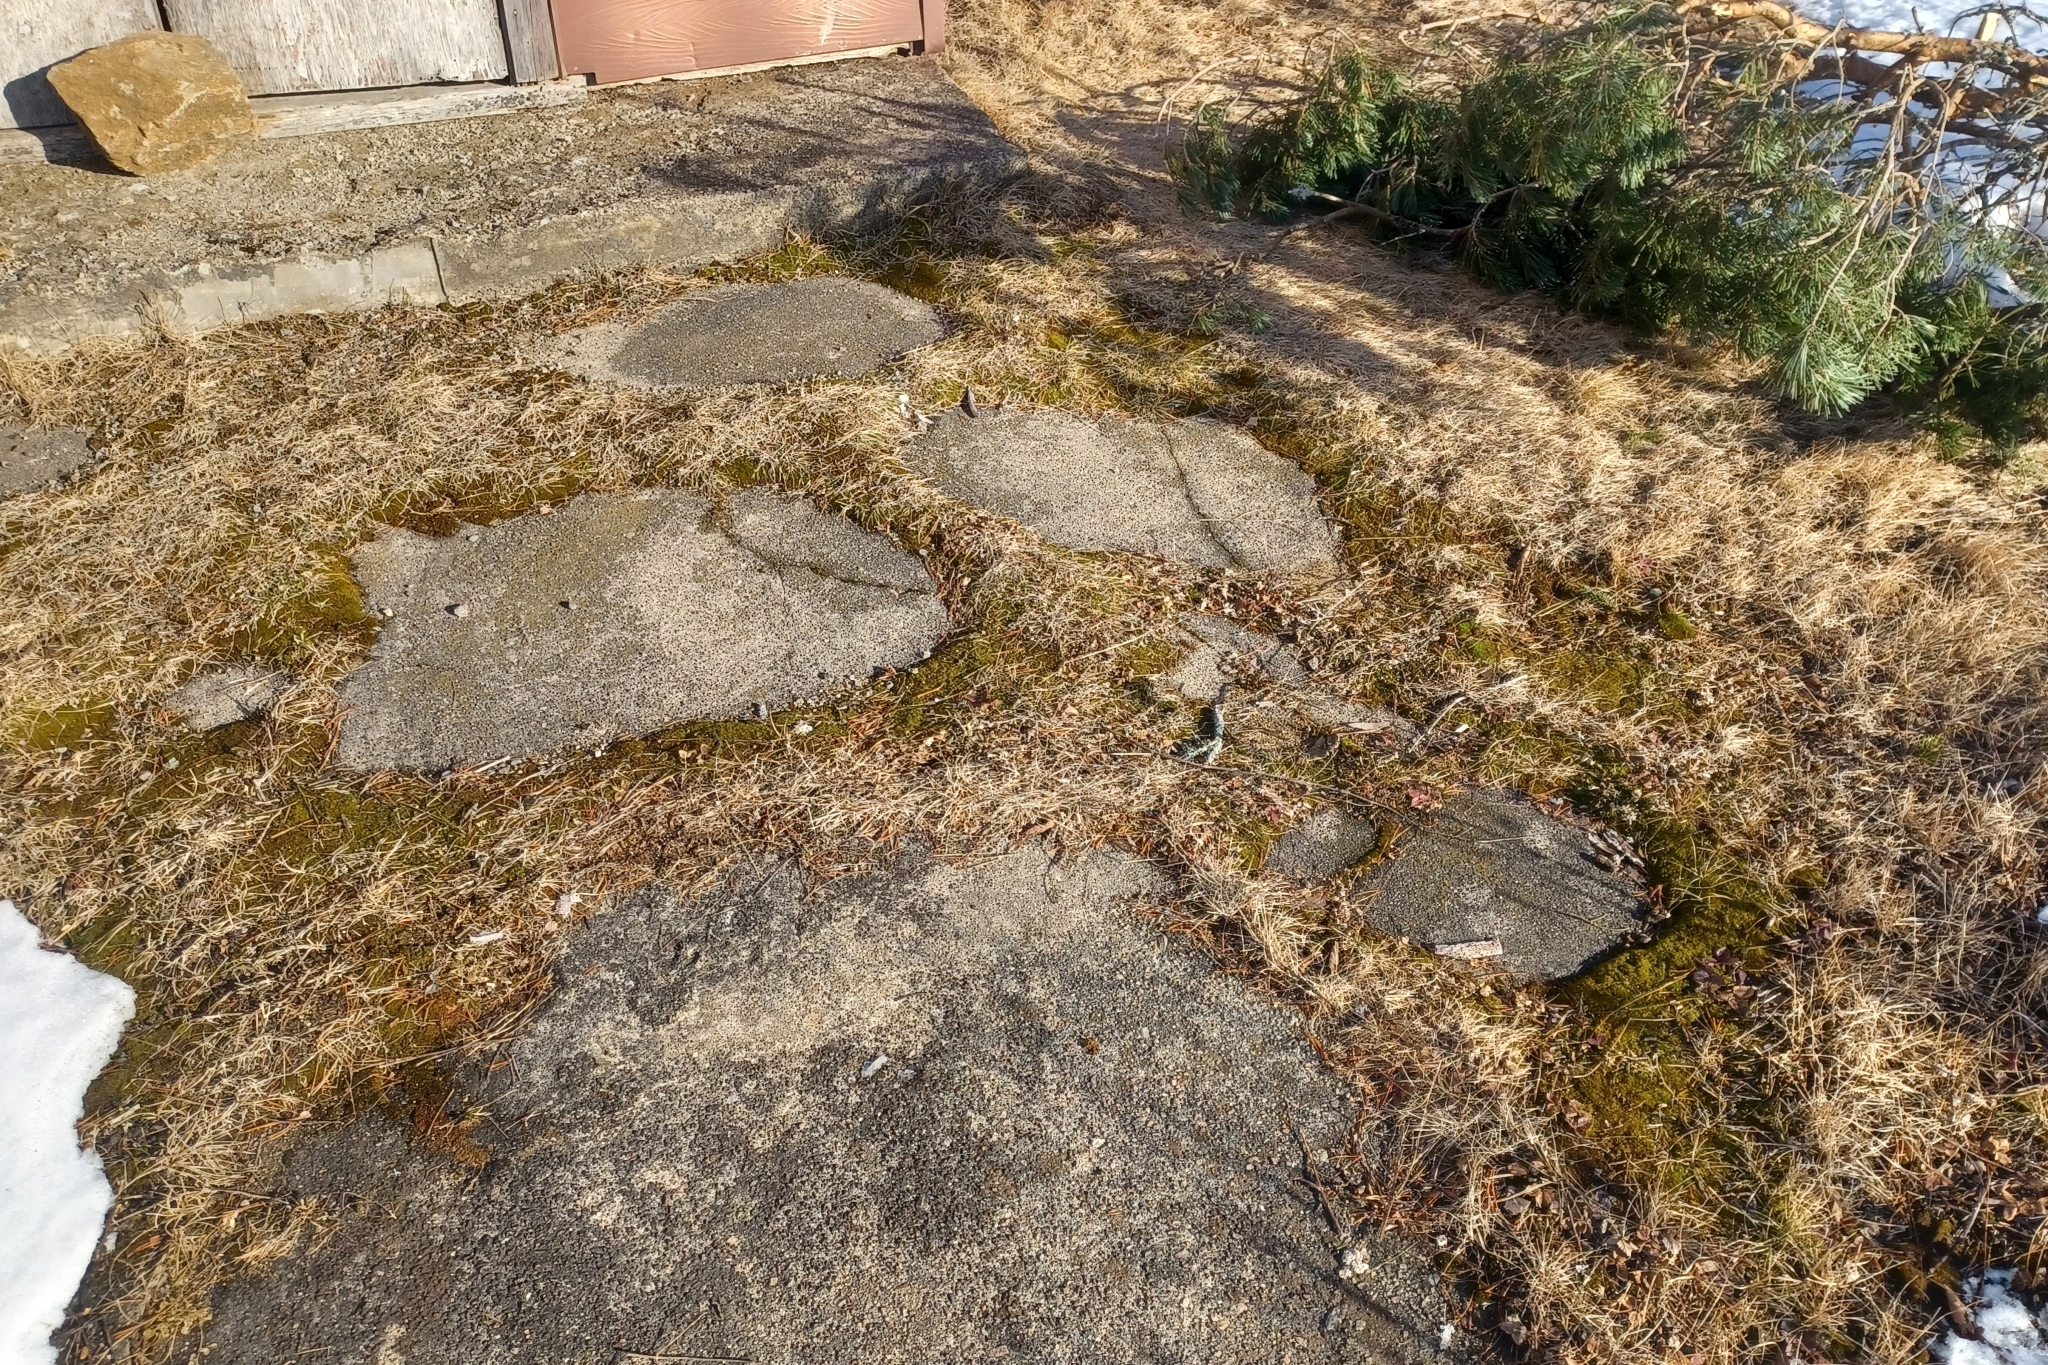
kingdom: Plantae
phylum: Bryophyta
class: Bryopsida
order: Pottiales
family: Pottiaceae
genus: Syntrichia
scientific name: Syntrichia ruralis
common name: Sidewalk screw moss
